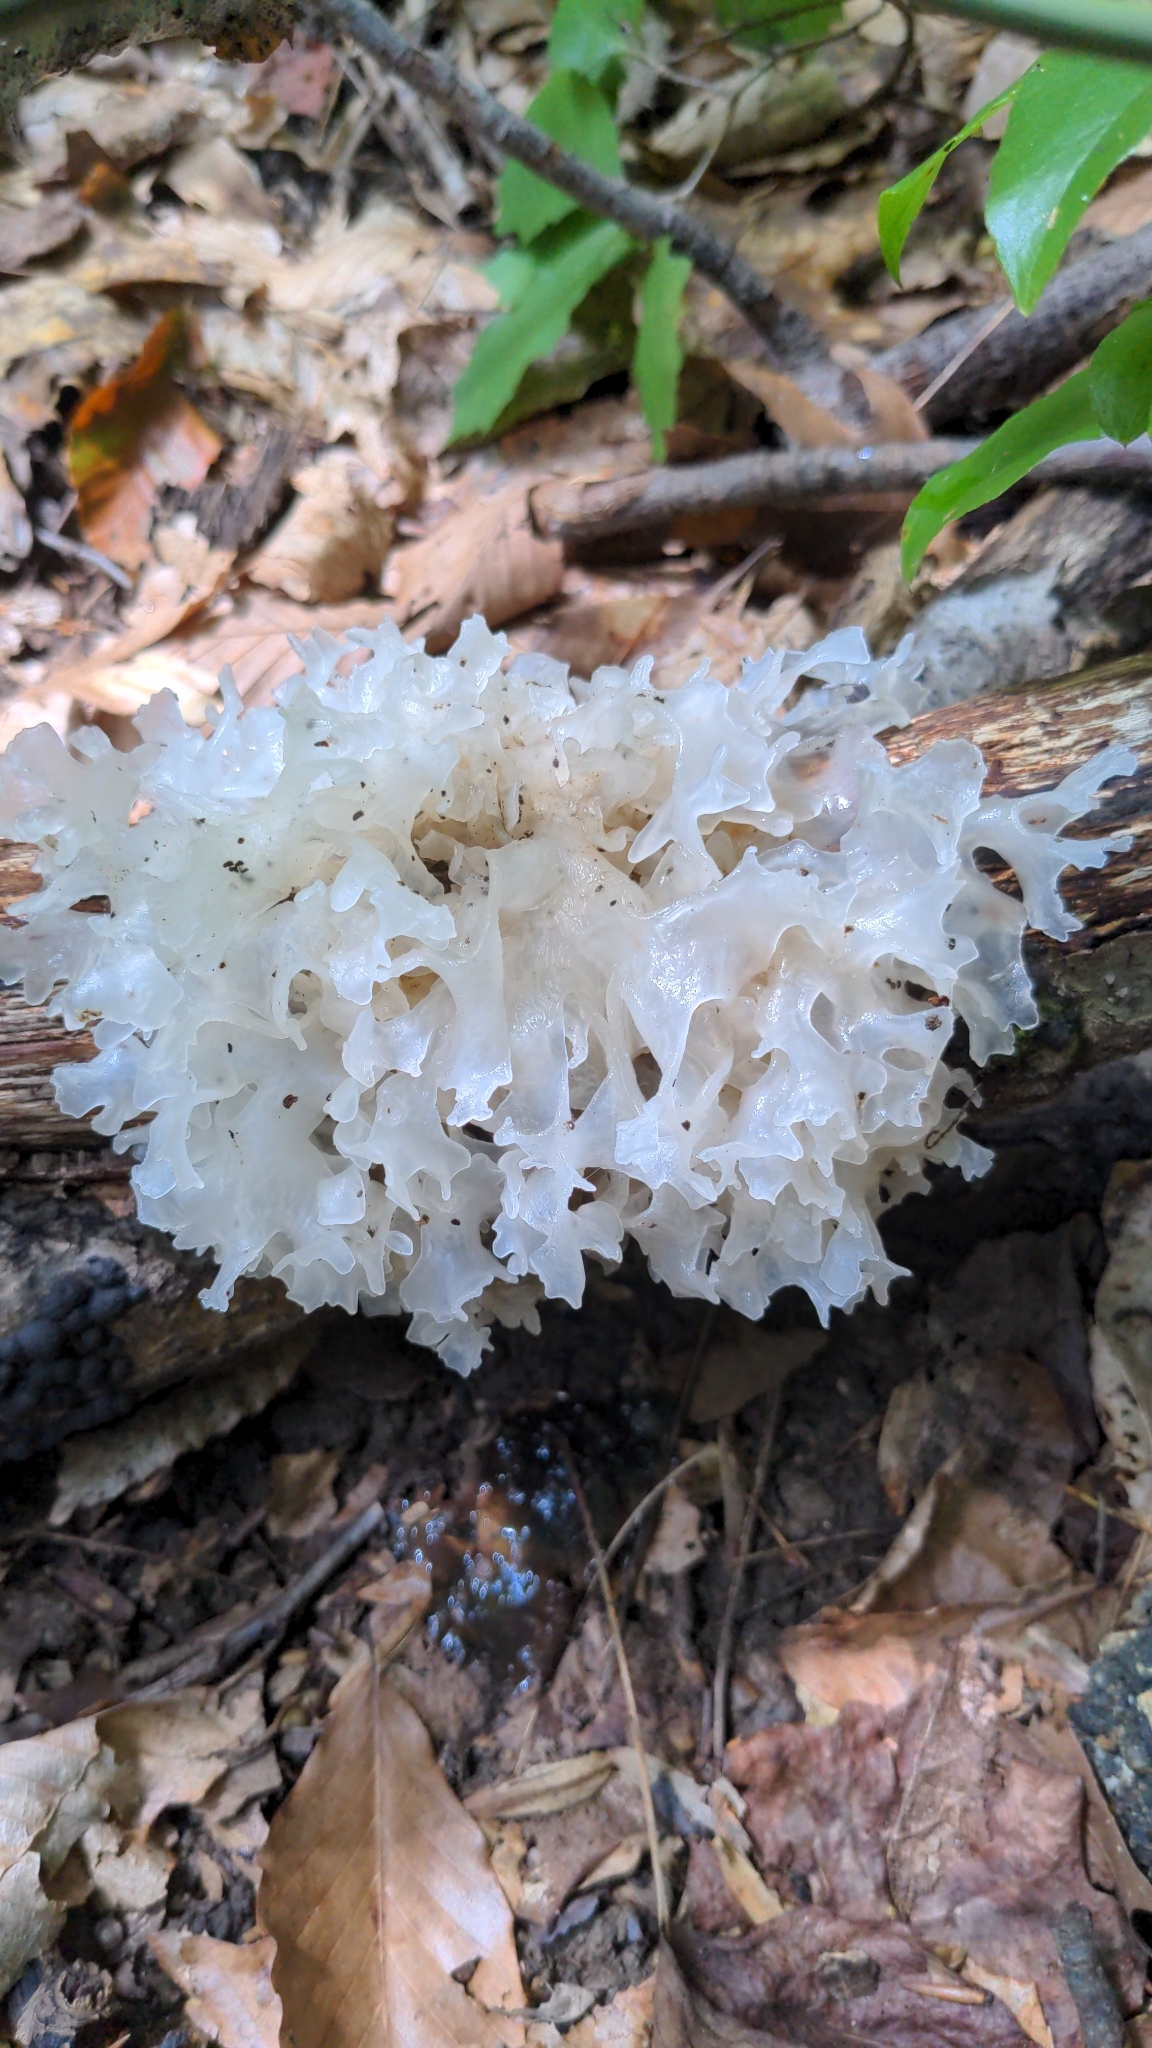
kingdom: Fungi
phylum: Basidiomycota
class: Tremellomycetes
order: Tremellales
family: Tremellaceae
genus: Tremella
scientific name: Tremella fuciformis
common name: Snow fungus
